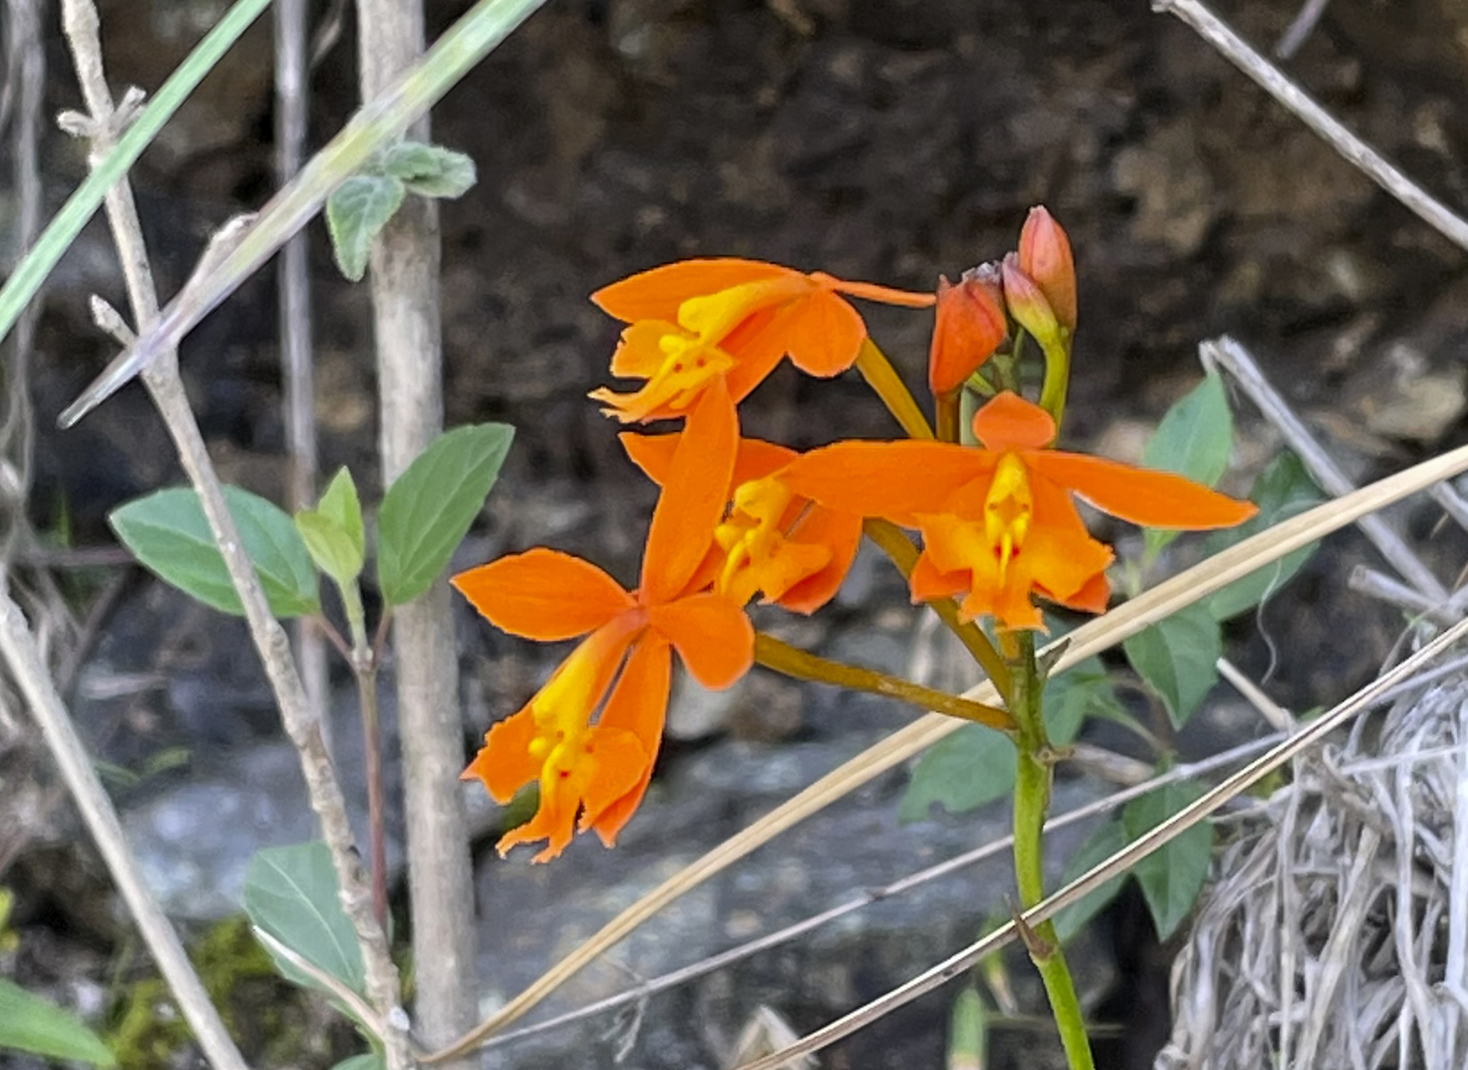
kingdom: Plantae
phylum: Tracheophyta
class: Liliopsida
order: Asparagales
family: Orchidaceae
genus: Epidendrum
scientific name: Epidendrum radicans
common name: Fire star orchid
